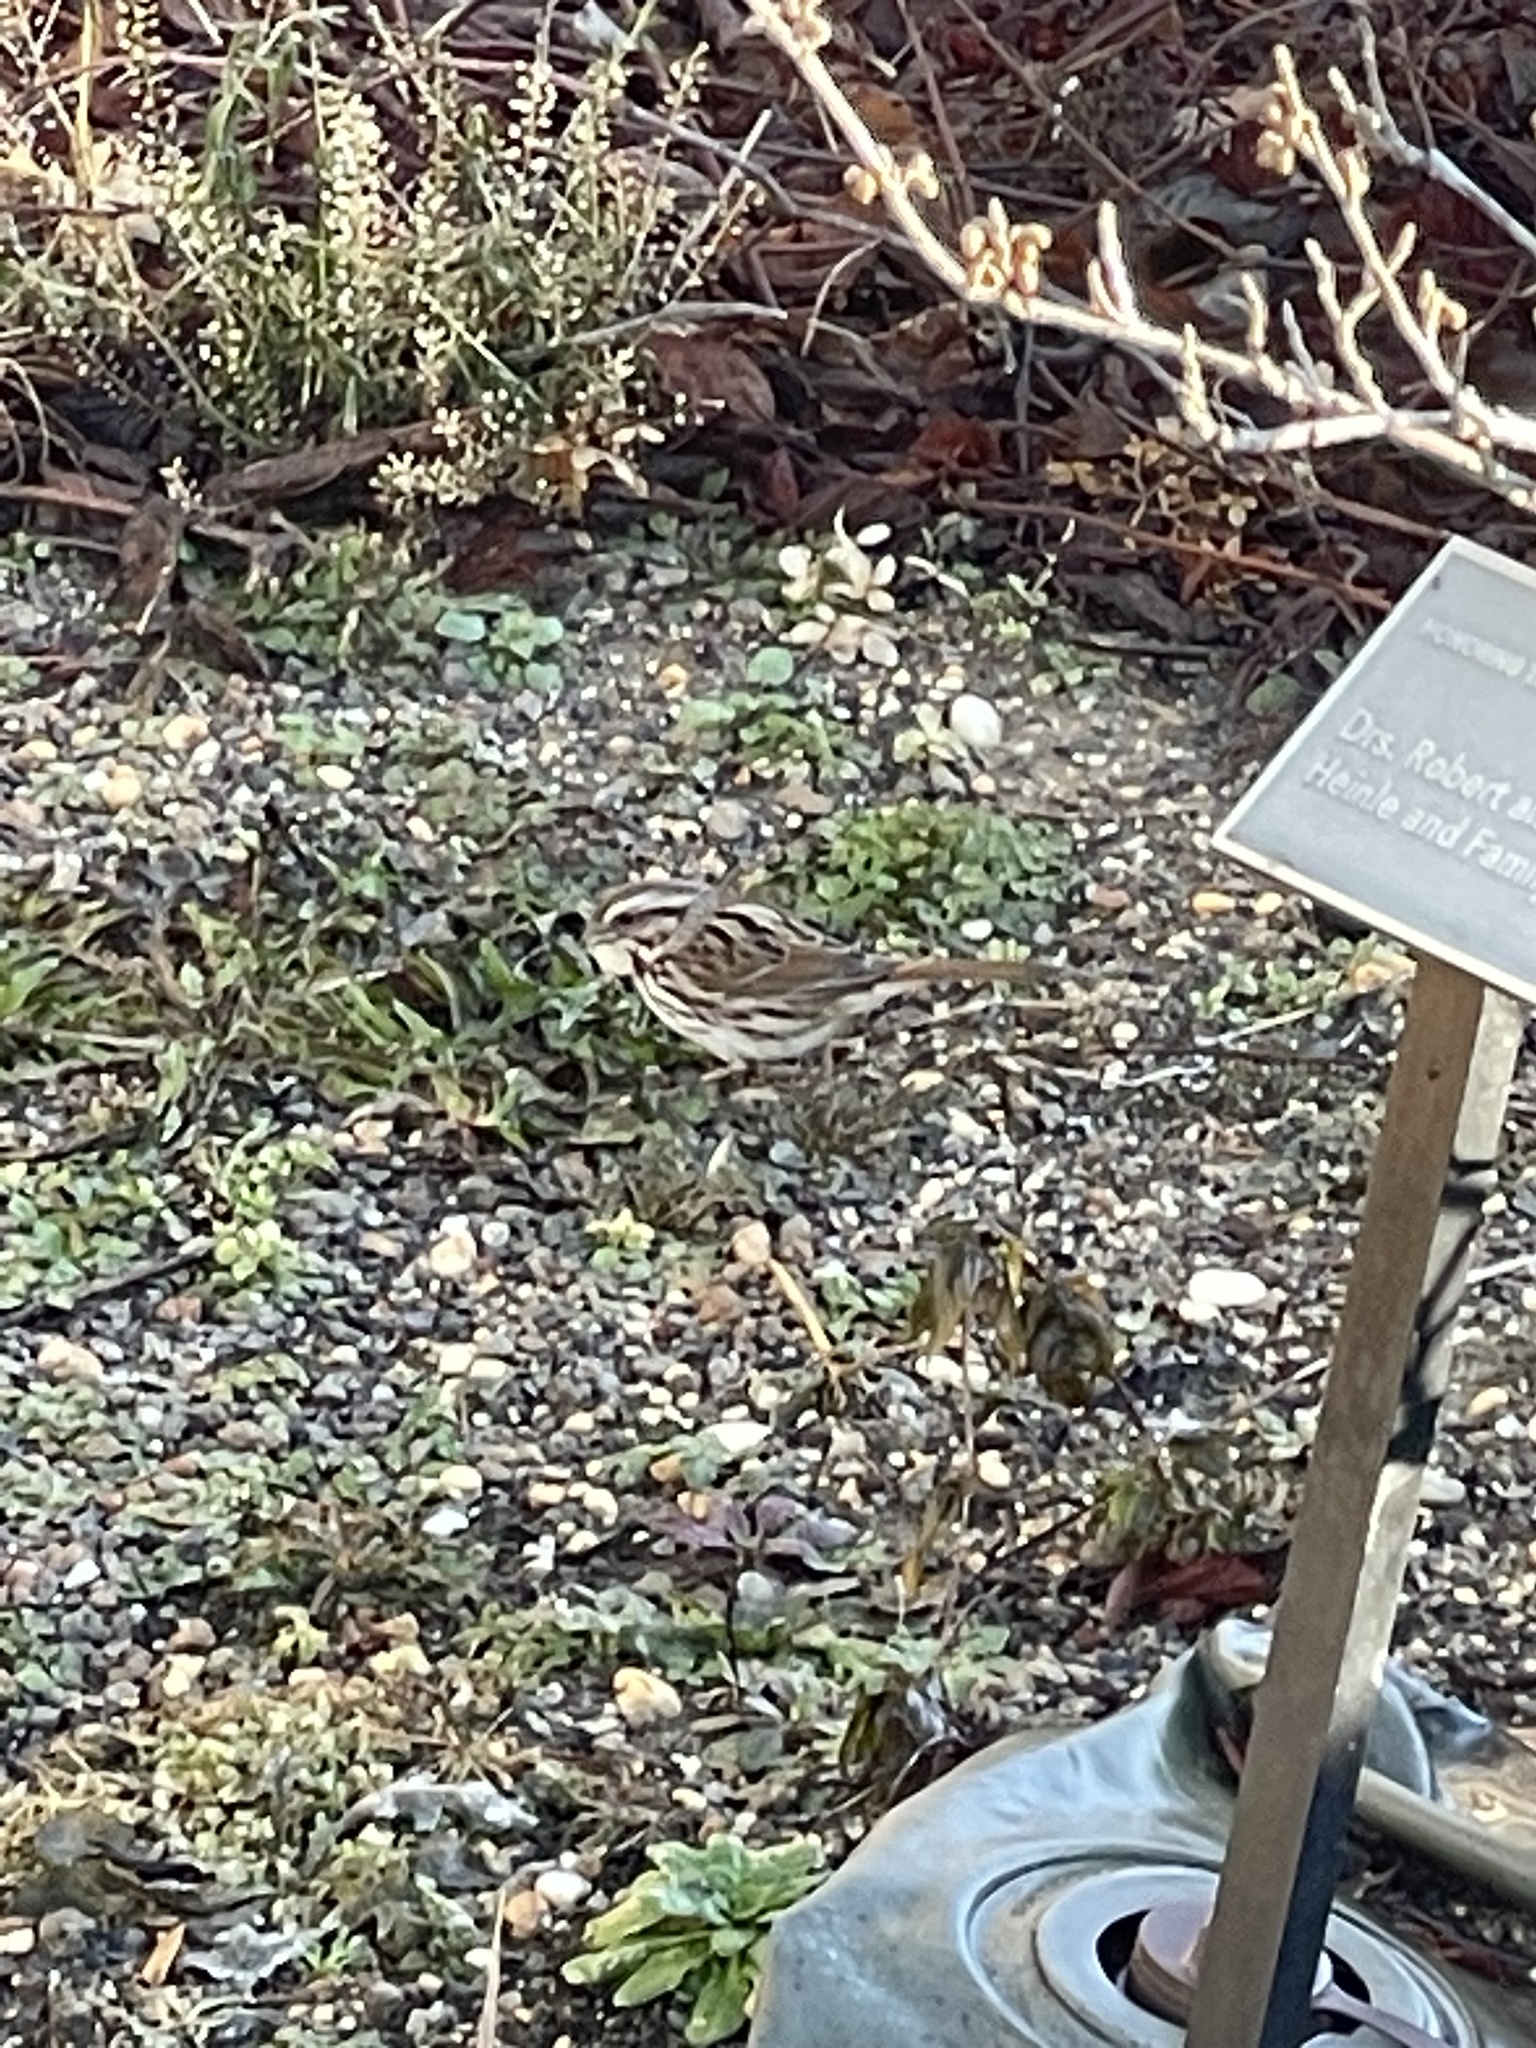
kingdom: Animalia
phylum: Chordata
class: Aves
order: Passeriformes
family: Passerellidae
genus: Melospiza
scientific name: Melospiza melodia
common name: Song sparrow
